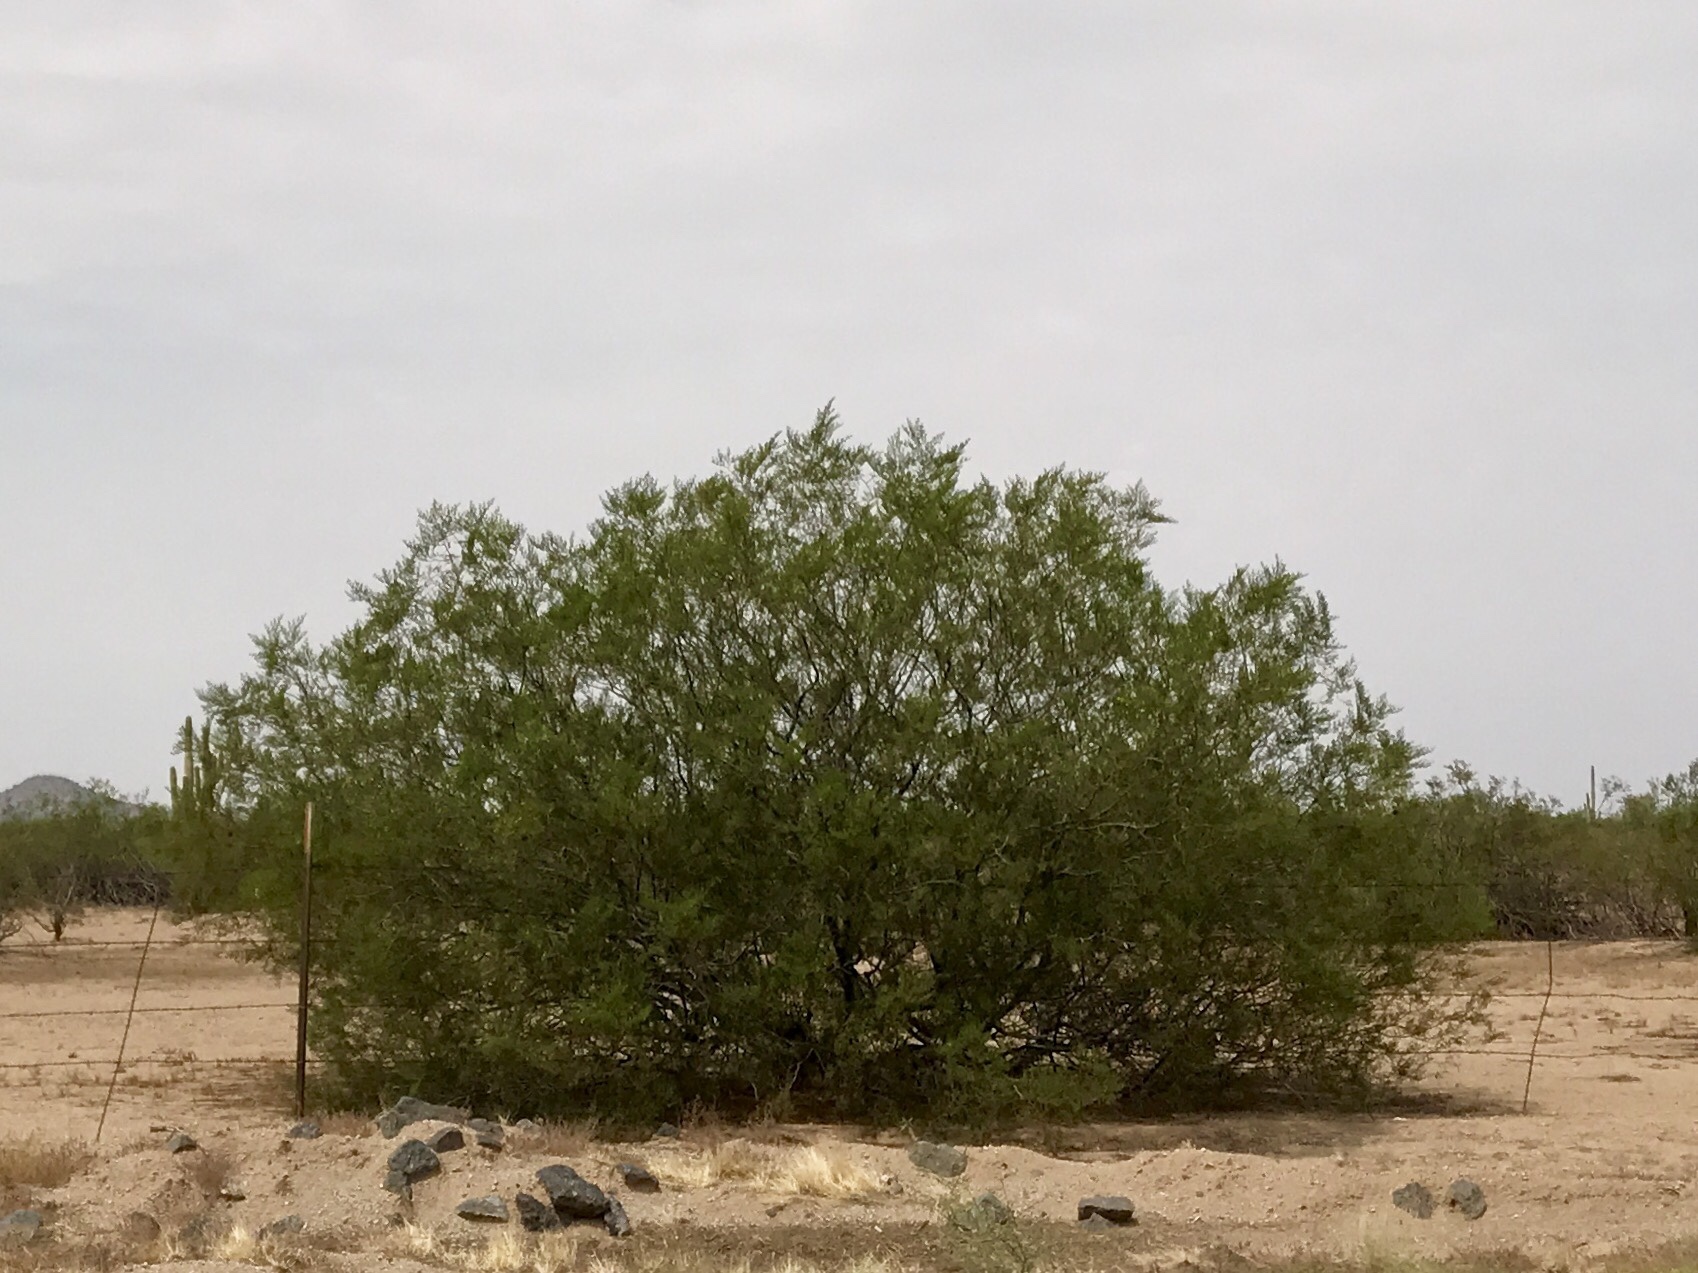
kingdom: Plantae
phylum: Tracheophyta
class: Magnoliopsida
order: Zygophyllales
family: Zygophyllaceae
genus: Larrea
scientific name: Larrea tridentata
